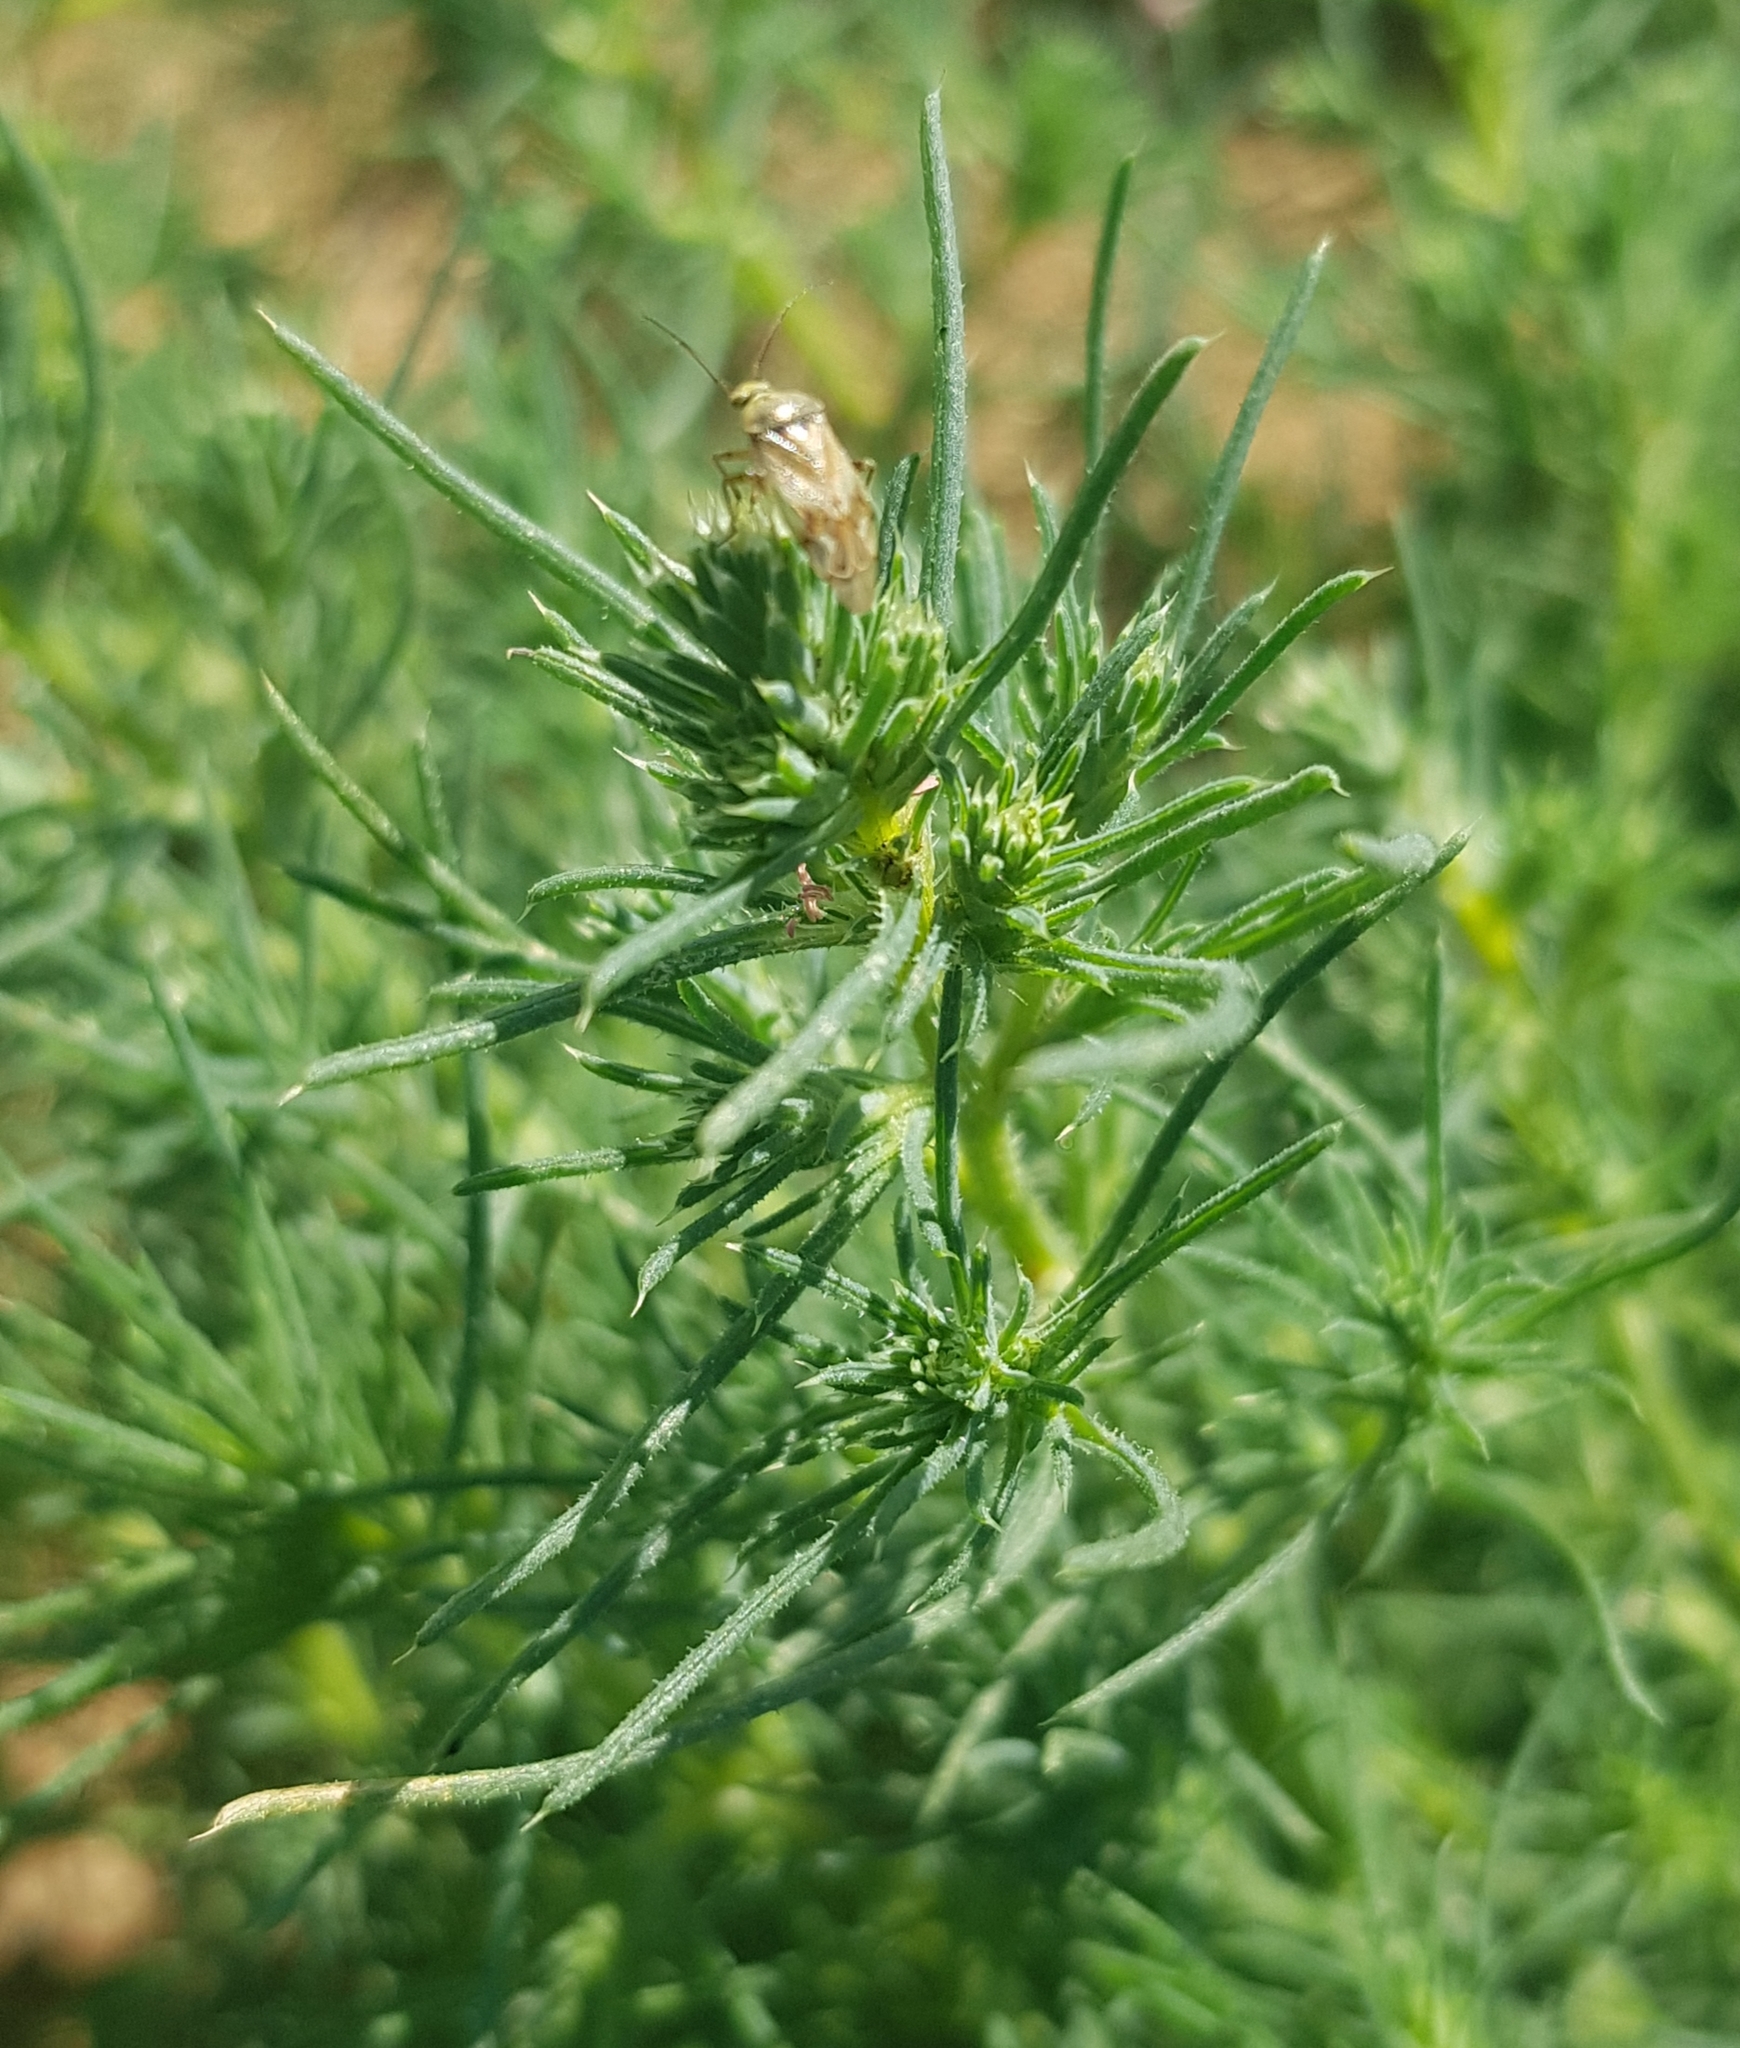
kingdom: Plantae
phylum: Tracheophyta
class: Magnoliopsida
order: Caryophyllales
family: Amaranthaceae
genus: Salsola
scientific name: Salsola collina
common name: Tumbleweed
